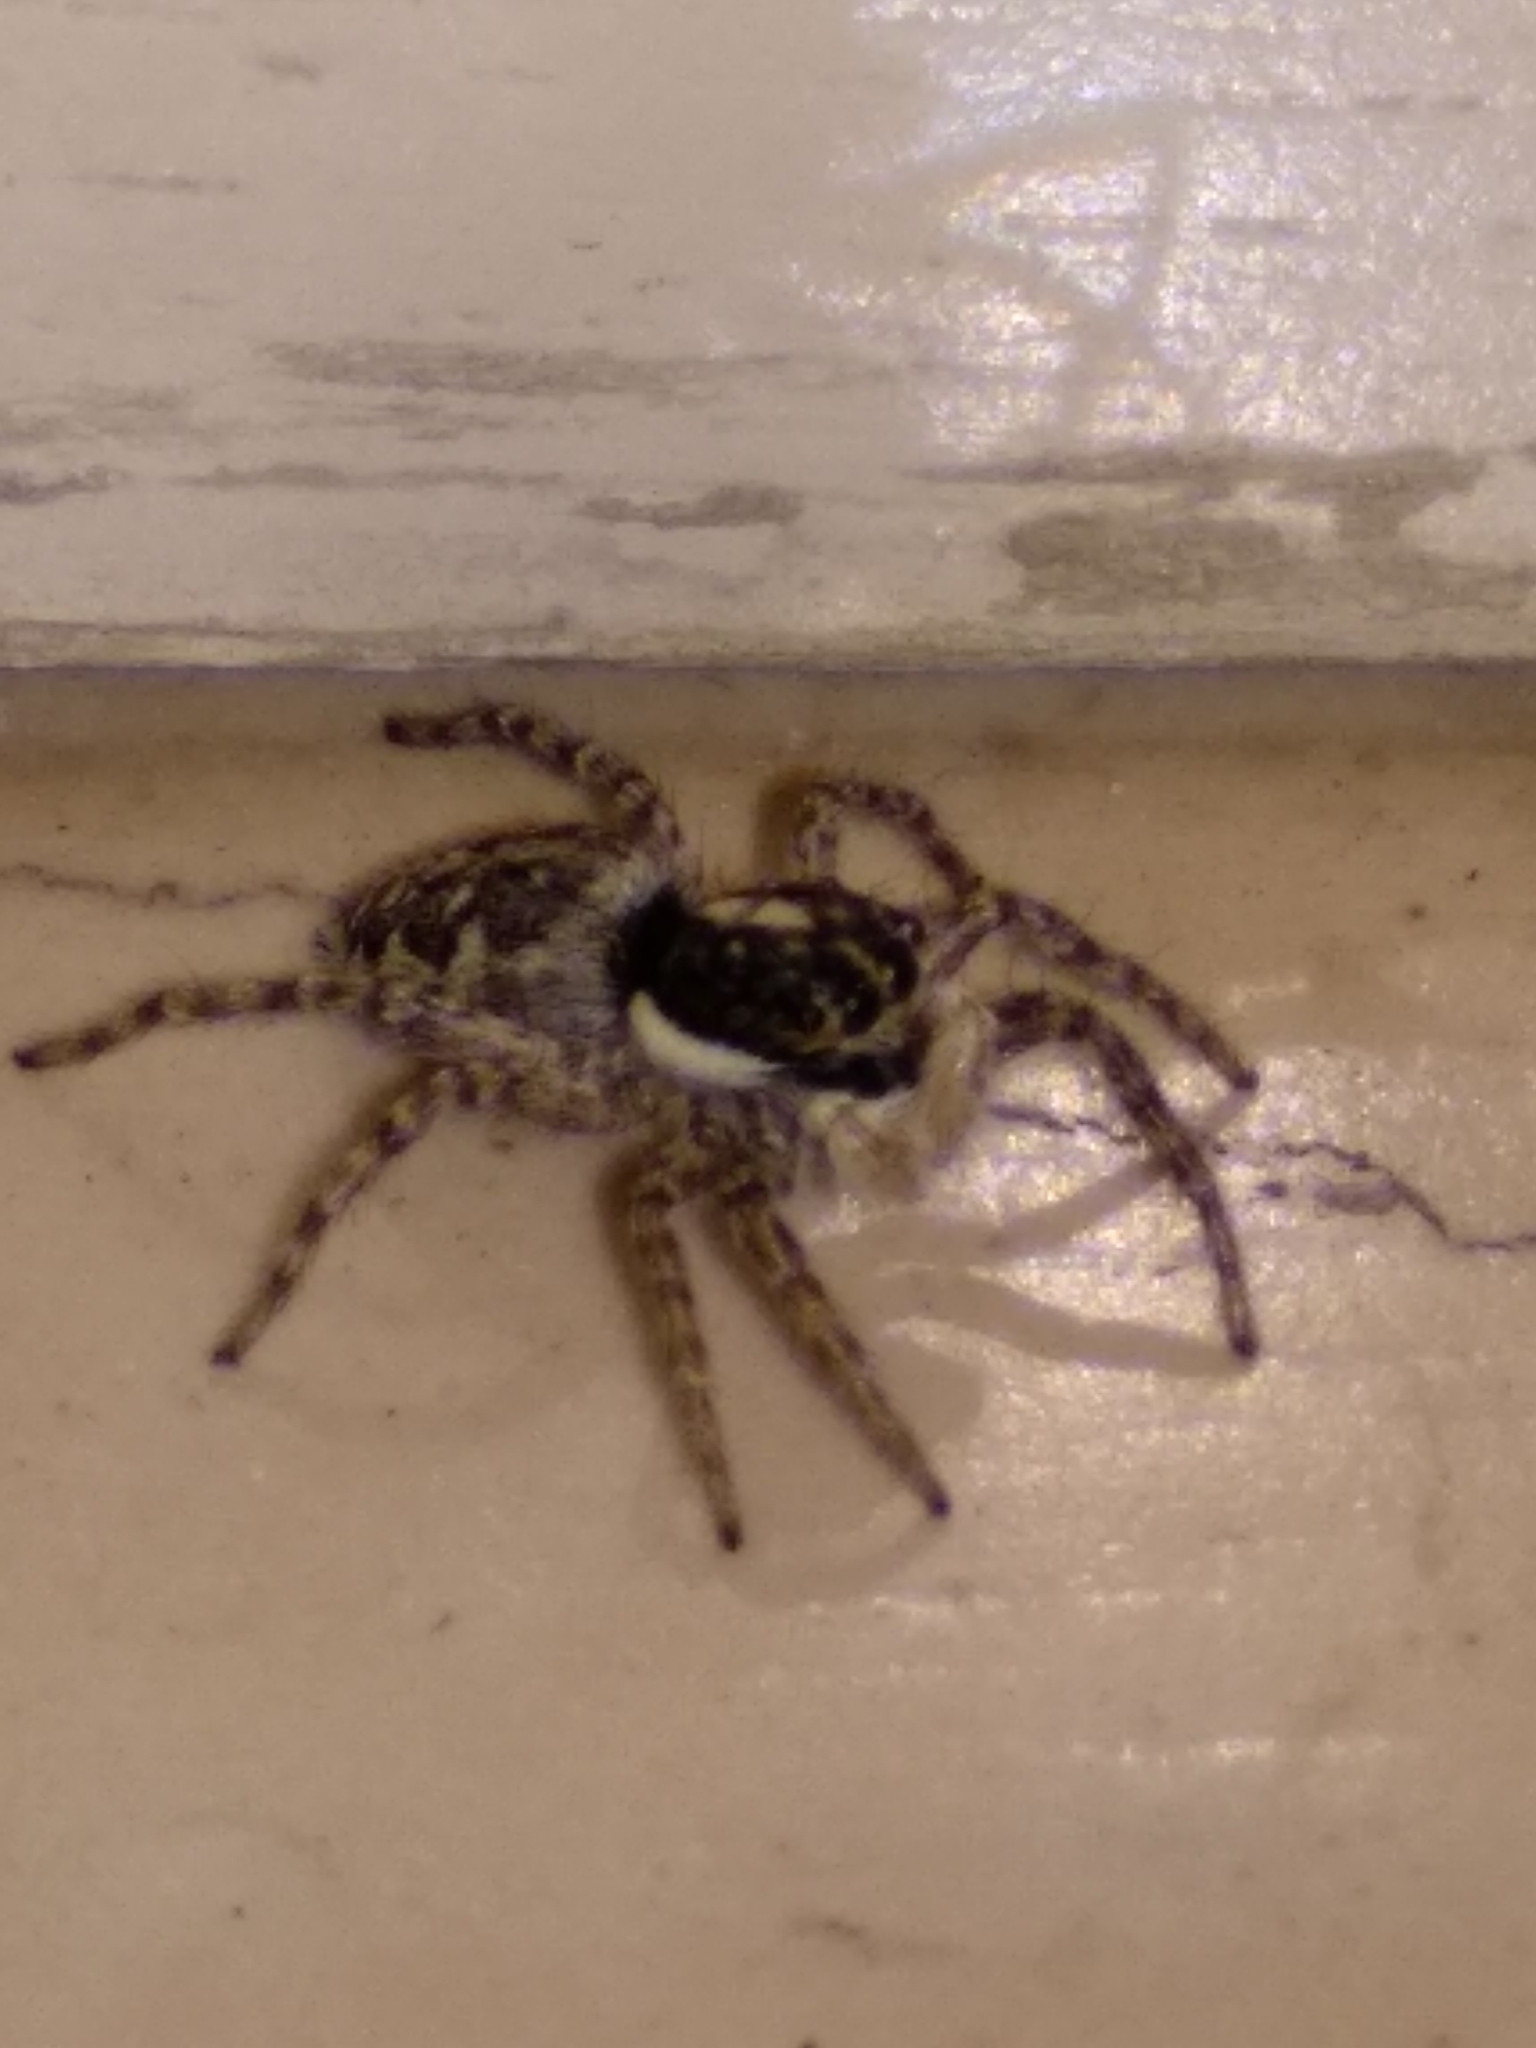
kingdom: Animalia
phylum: Arthropoda
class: Arachnida
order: Araneae
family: Salticidae
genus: Menemerus
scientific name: Menemerus semilimbatus
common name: Jumping spider
